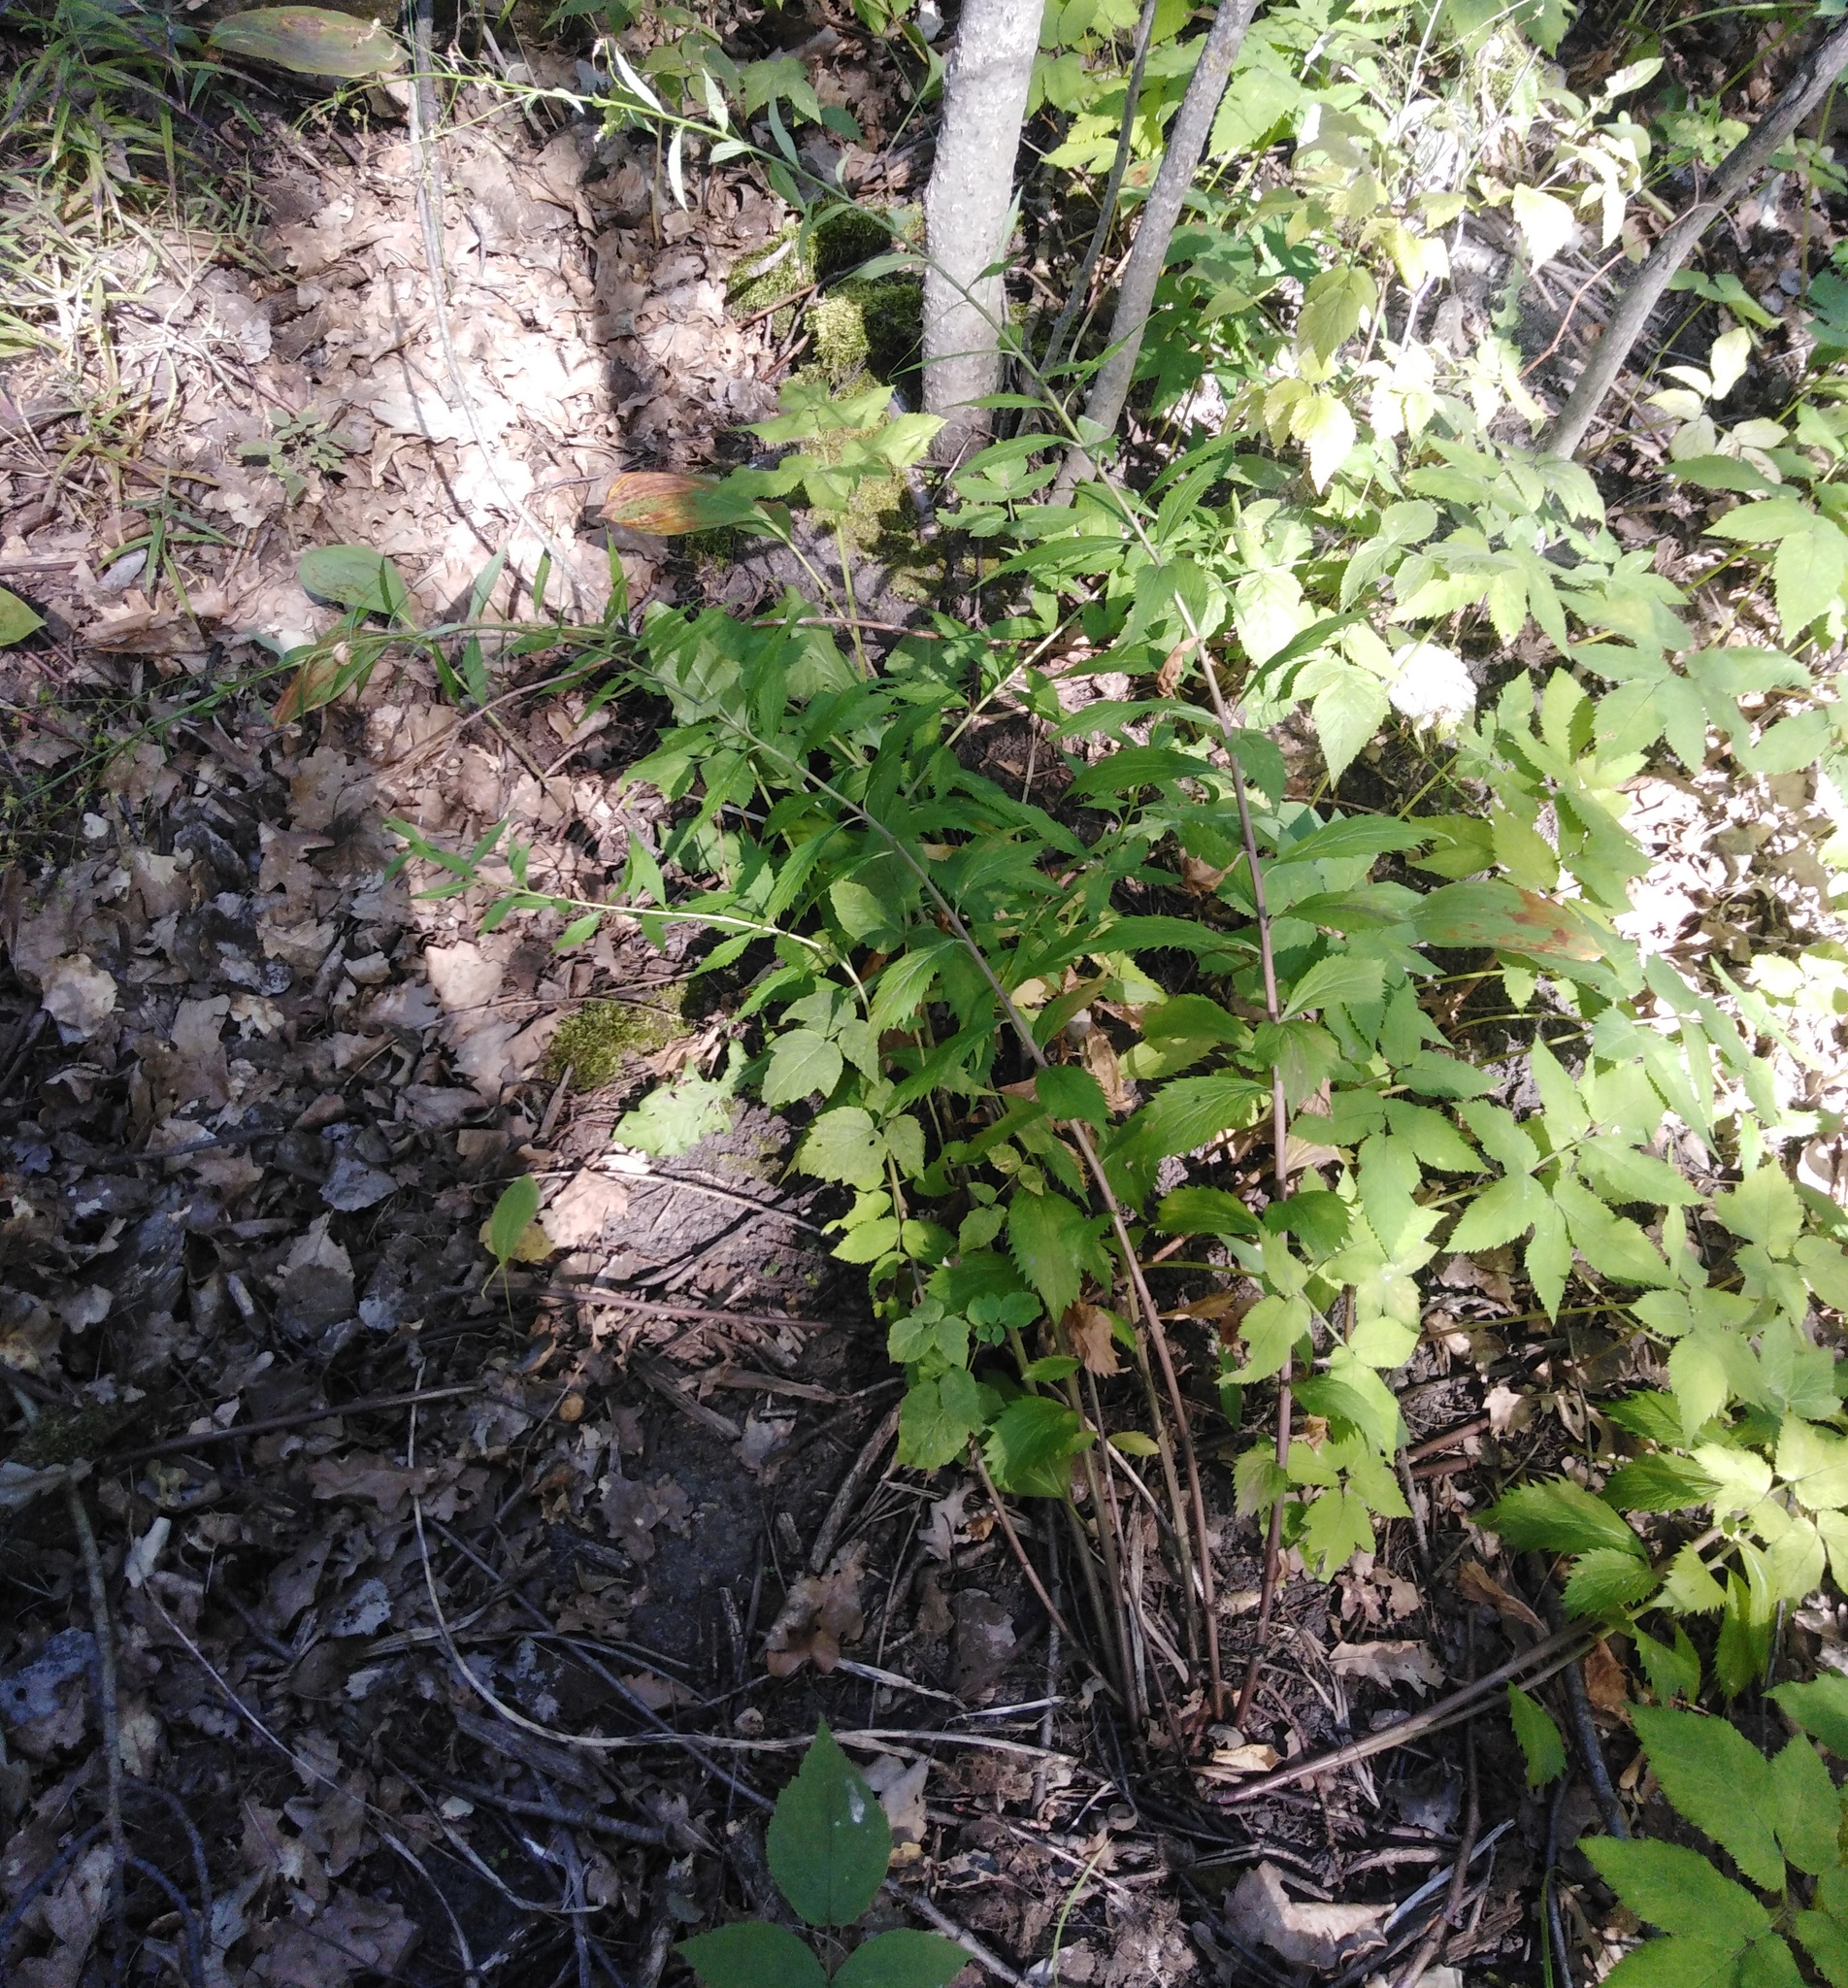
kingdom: Plantae
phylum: Tracheophyta
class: Magnoliopsida
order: Asterales
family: Campanulaceae
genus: Adenophora
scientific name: Adenophora liliifolia
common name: Lilyleaf ladybells
